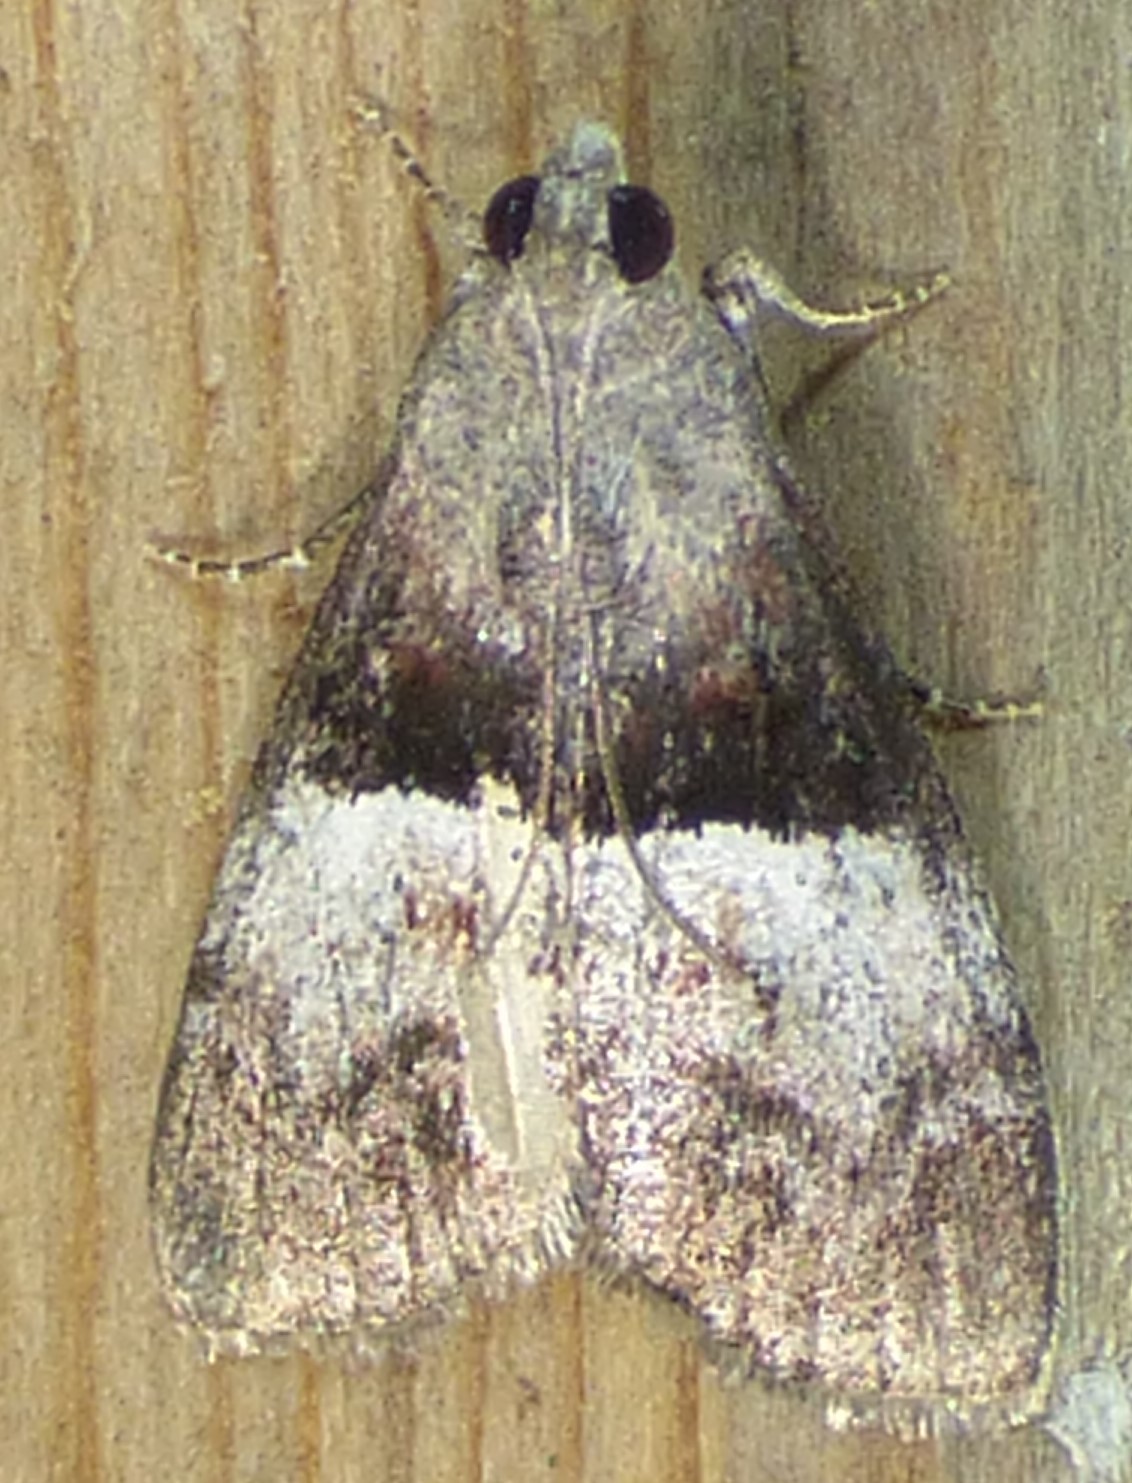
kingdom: Animalia
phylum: Arthropoda
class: Insecta
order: Lepidoptera
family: Pyralidae
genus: Pococera
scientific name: Pococera robustella
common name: Pine webworm moth
